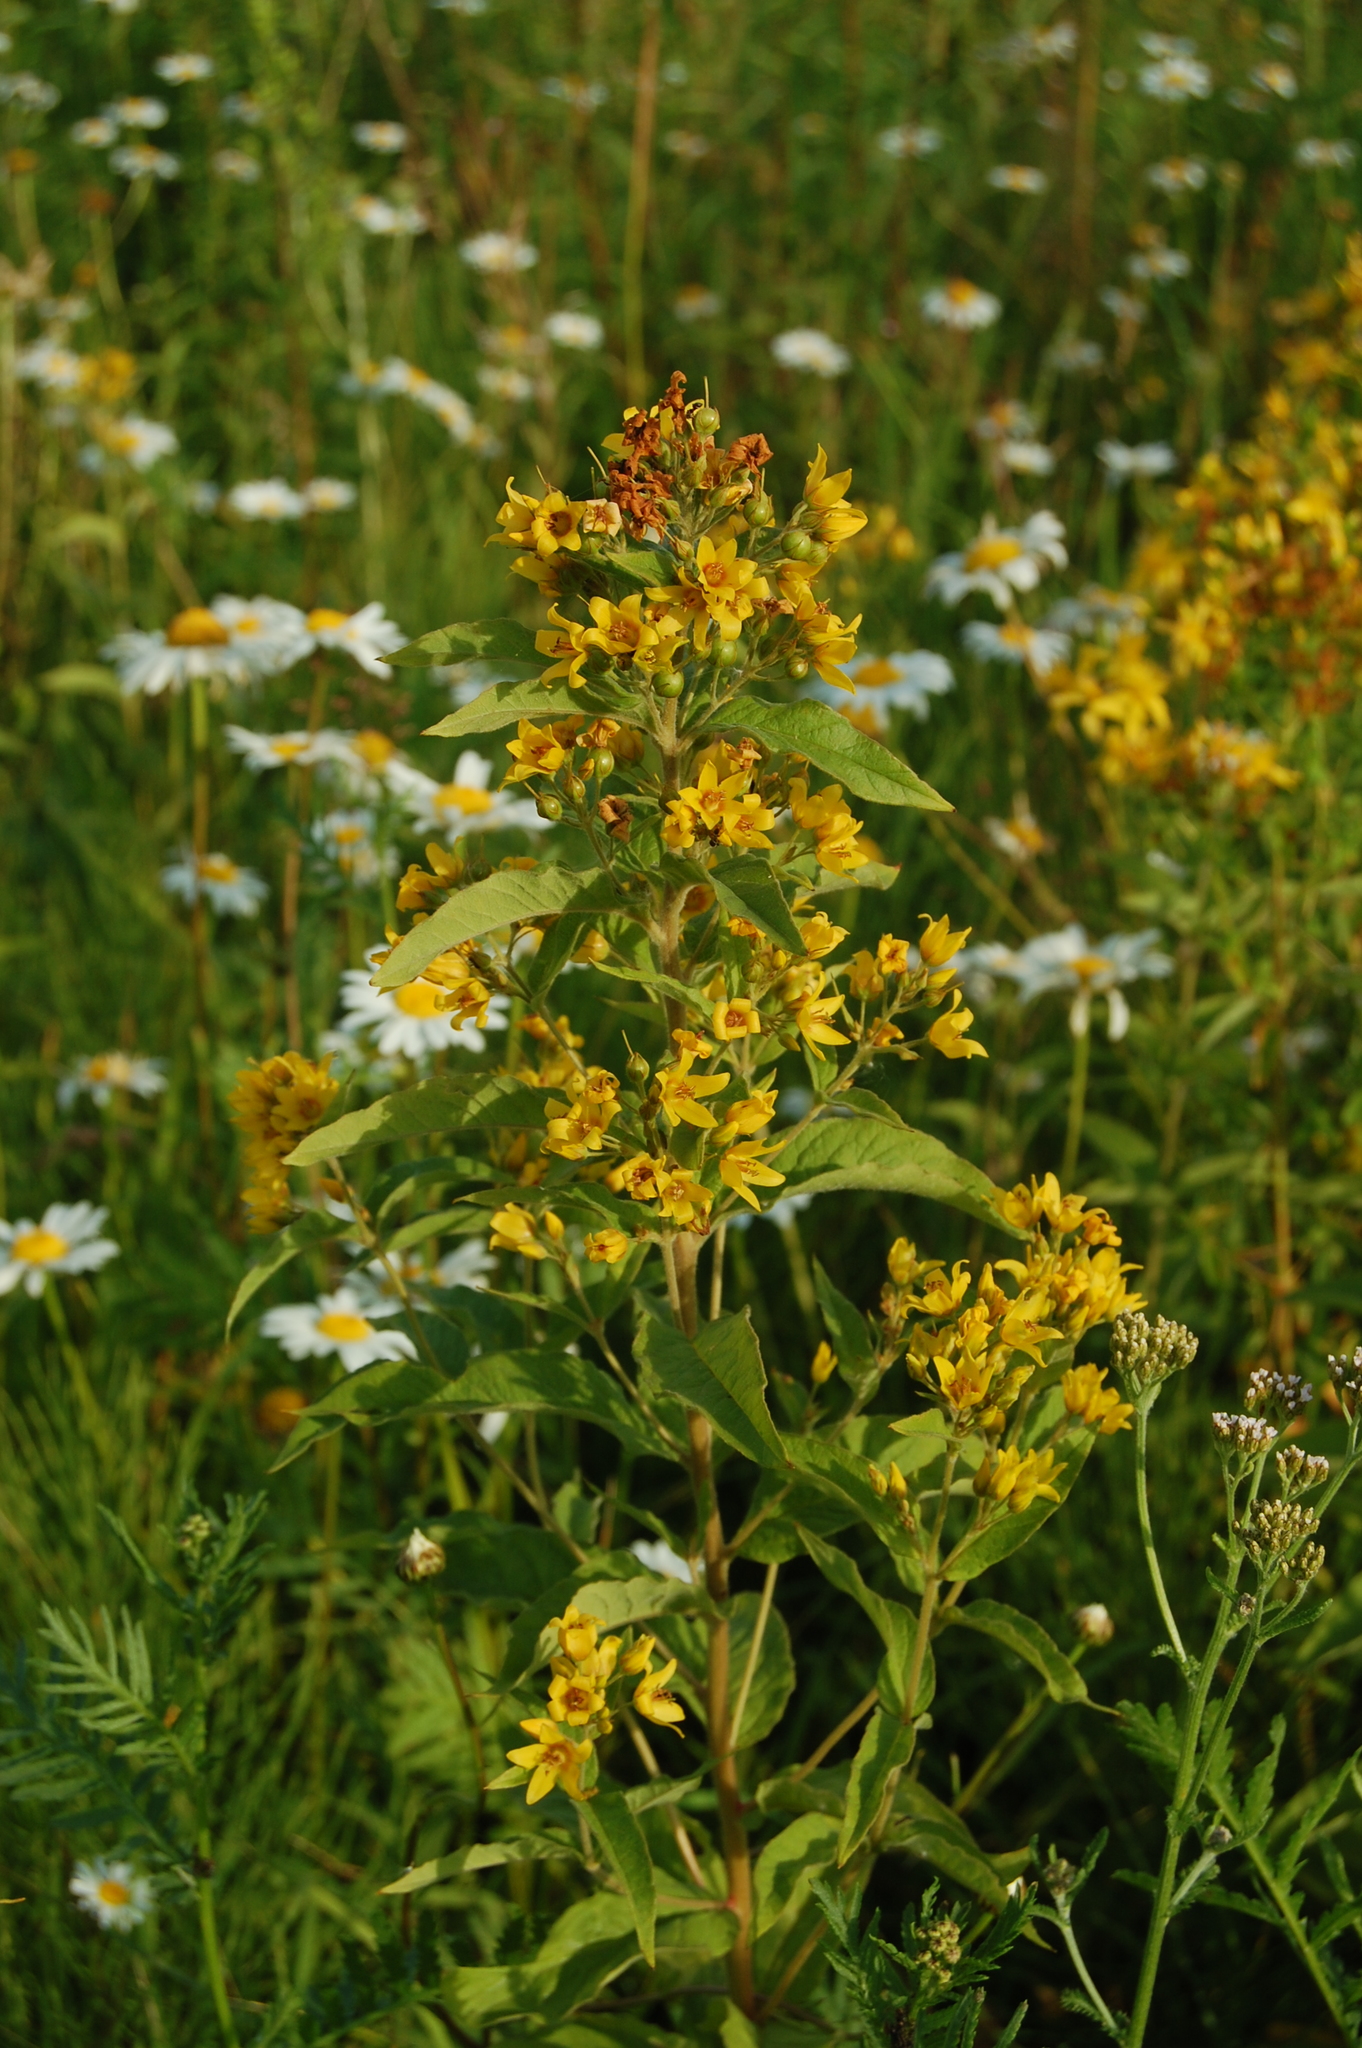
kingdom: Plantae
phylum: Tracheophyta
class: Magnoliopsida
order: Ericales
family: Primulaceae
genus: Lysimachia
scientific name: Lysimachia vulgaris
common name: Yellow loosestrife
